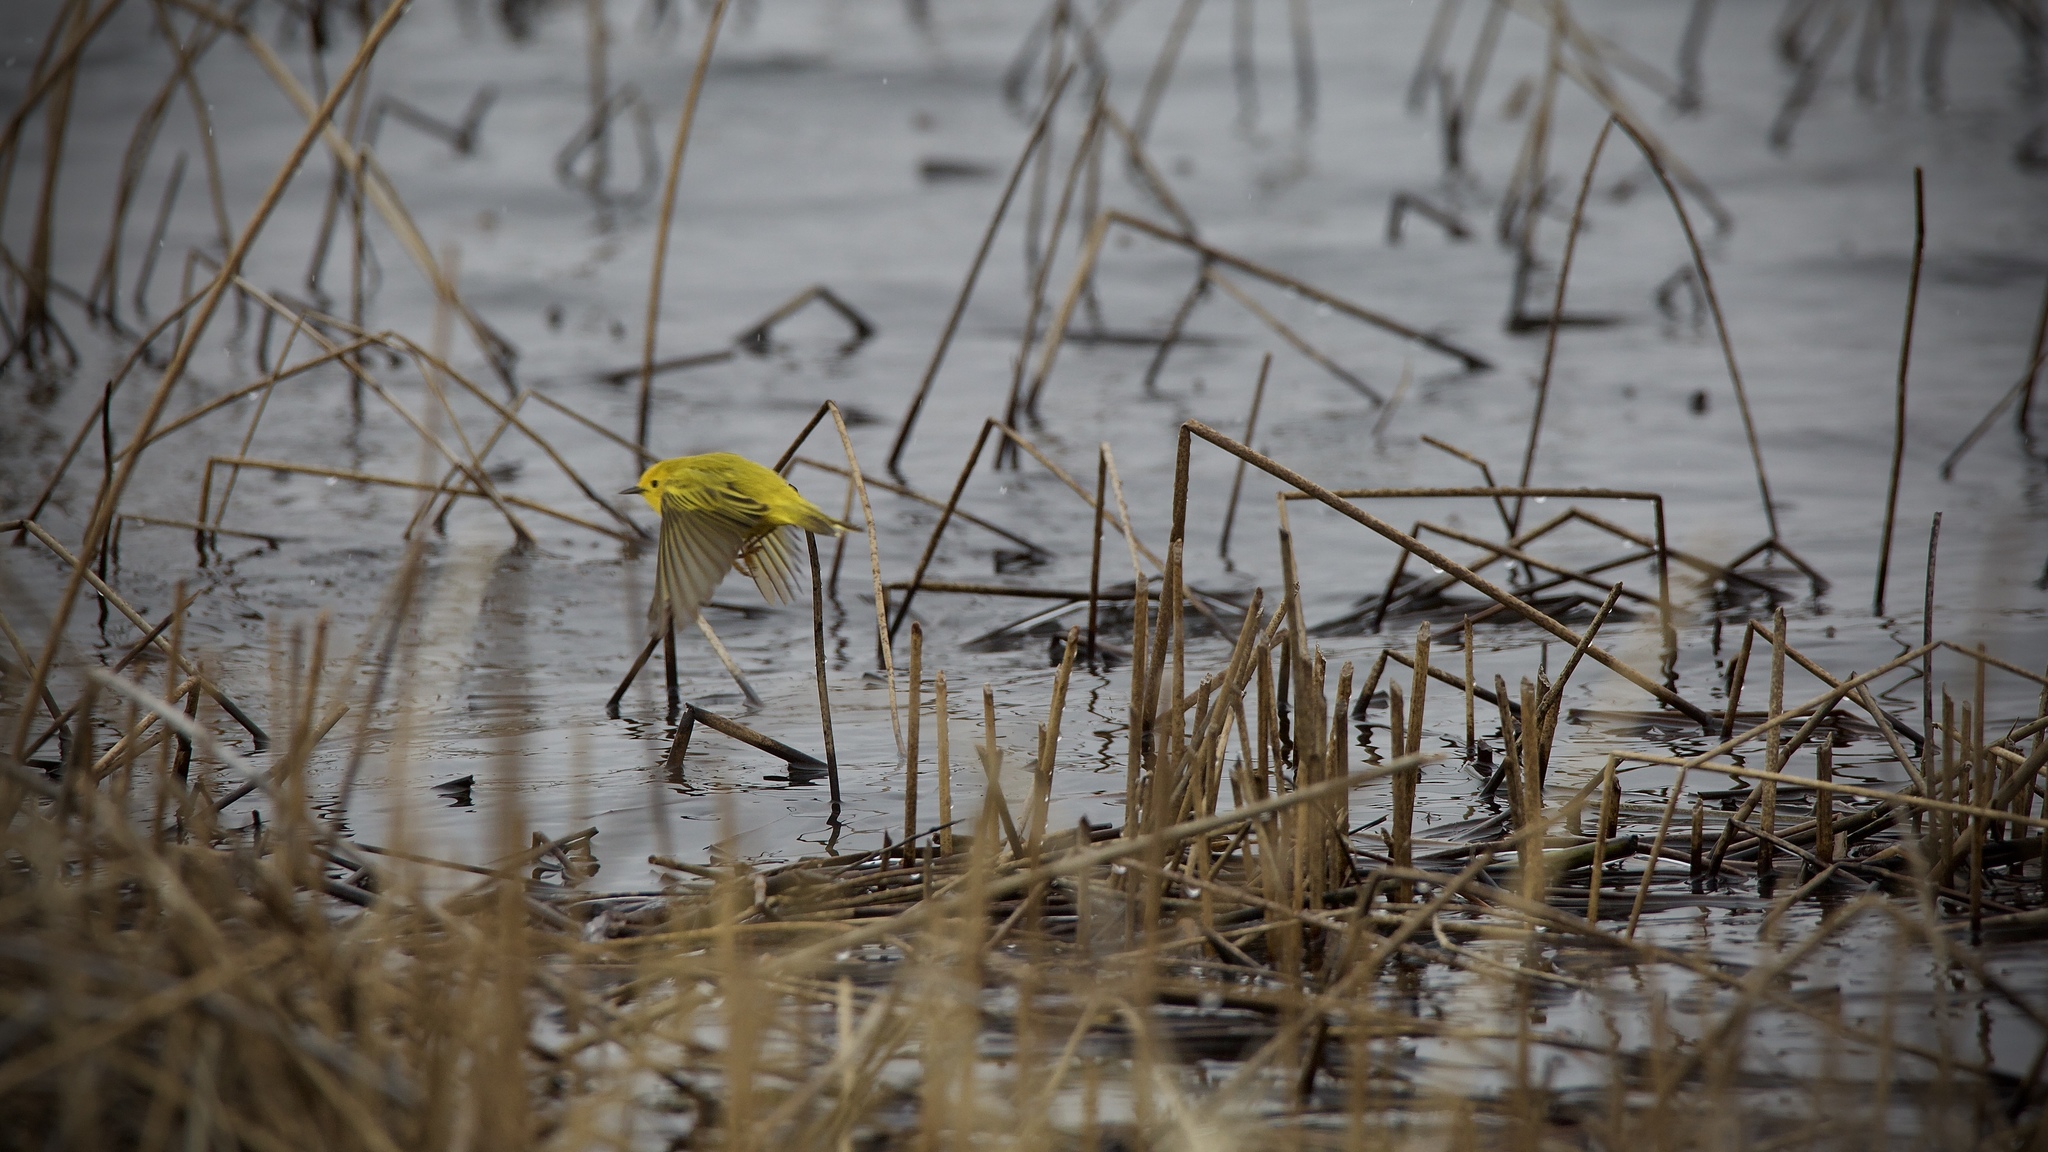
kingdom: Animalia
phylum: Chordata
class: Aves
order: Passeriformes
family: Parulidae
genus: Setophaga
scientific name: Setophaga petechia
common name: Yellow warbler
